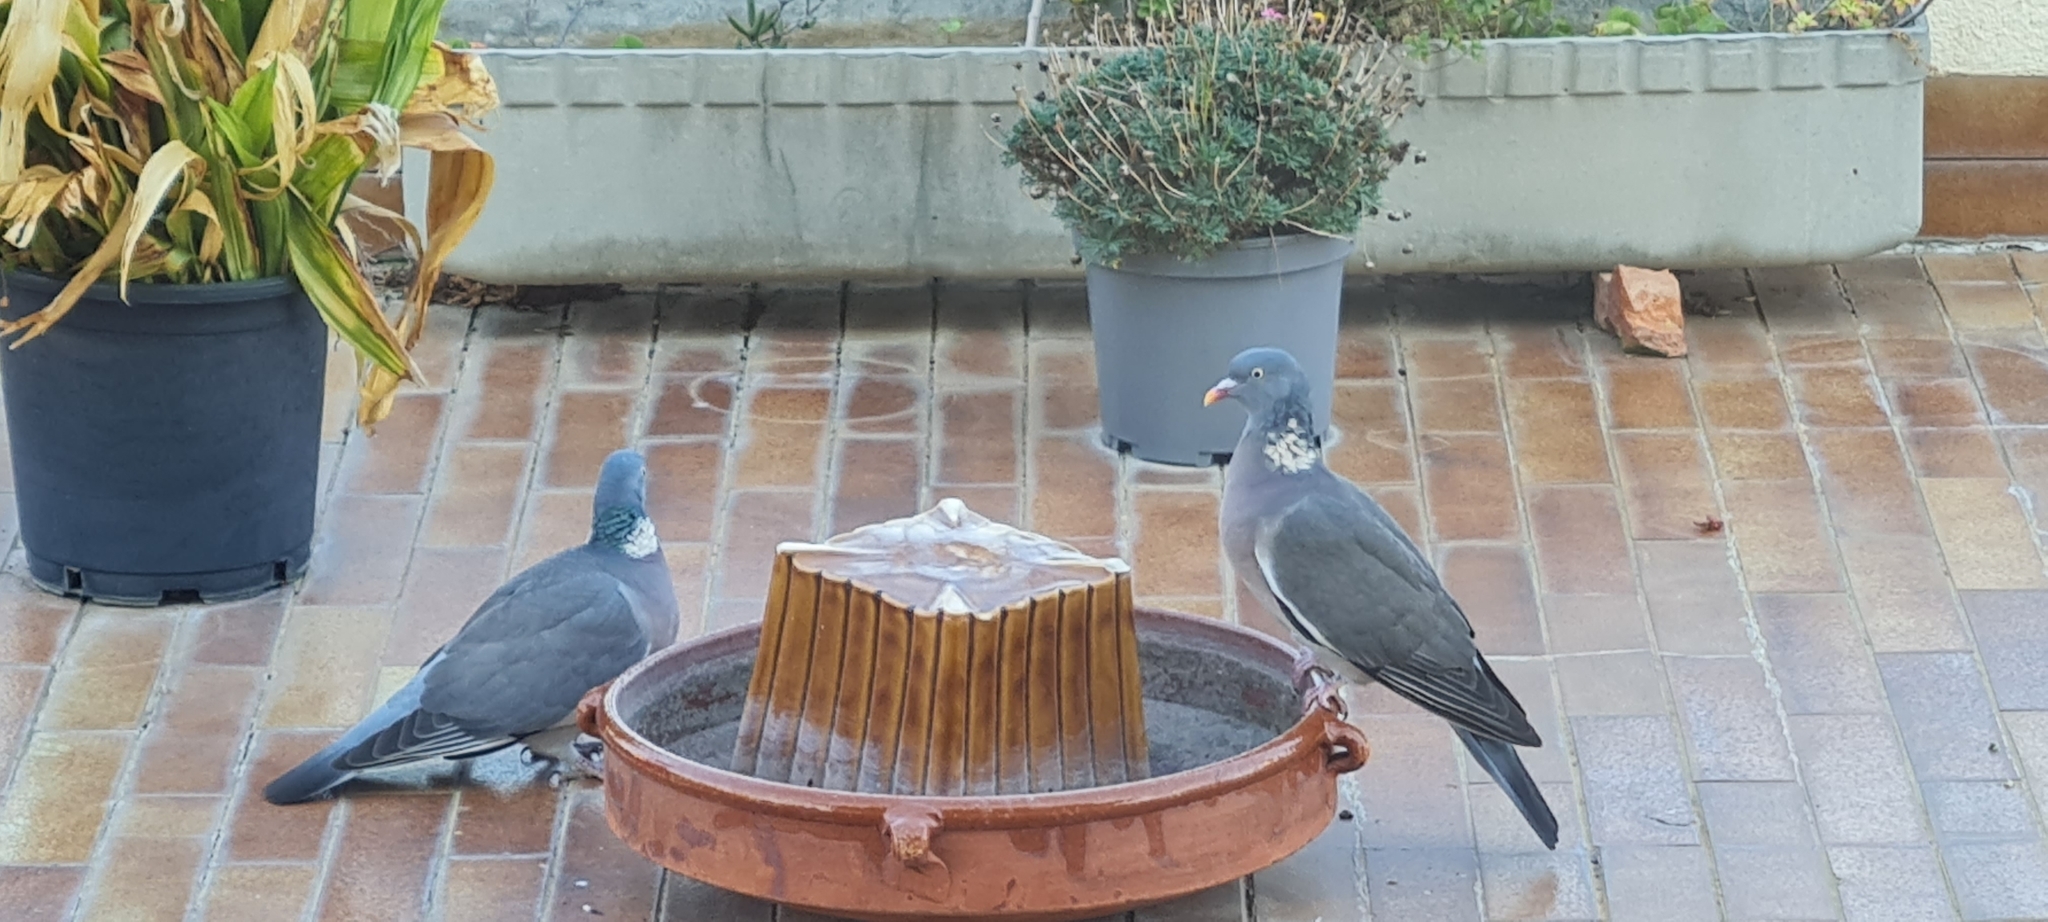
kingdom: Animalia
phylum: Chordata
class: Aves
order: Columbiformes
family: Columbidae
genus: Columba
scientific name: Columba palumbus
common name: Common wood pigeon
